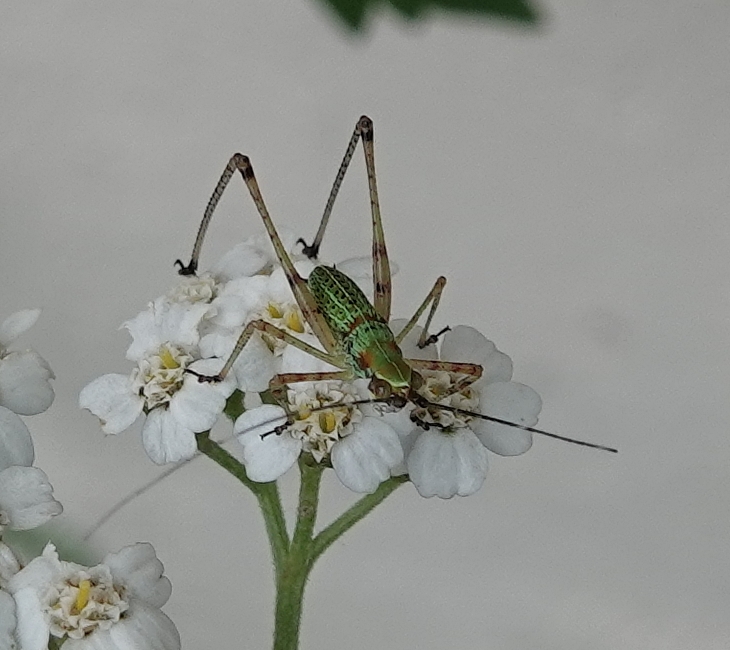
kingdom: Animalia
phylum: Arthropoda
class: Insecta
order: Orthoptera
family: Tettigoniidae
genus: Scudderia
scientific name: Scudderia
